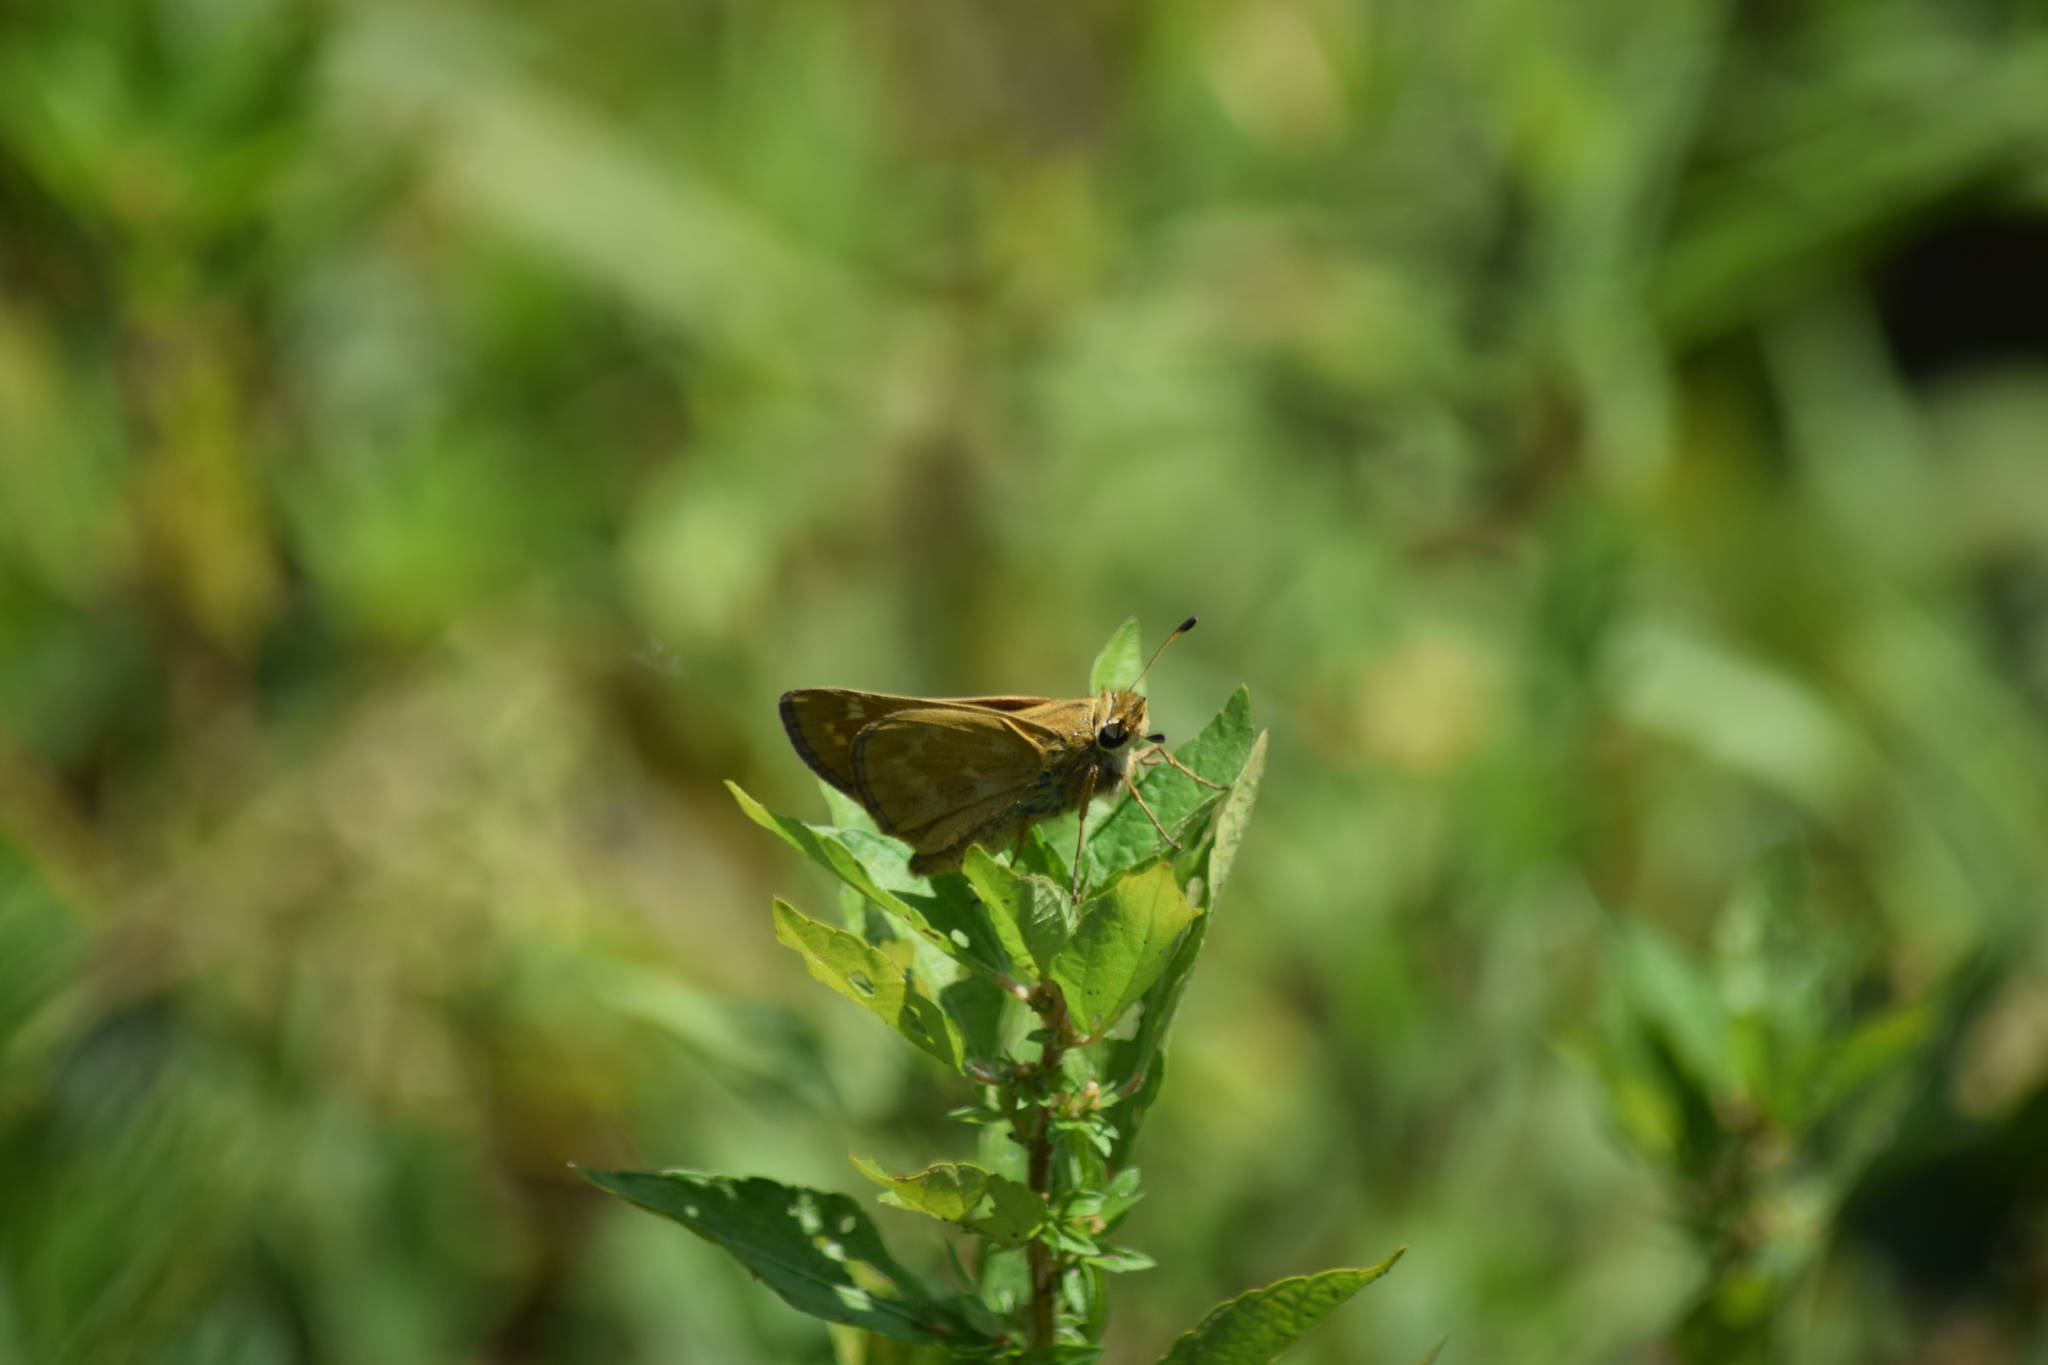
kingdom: Animalia
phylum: Arthropoda
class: Insecta
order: Lepidoptera
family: Hesperiidae
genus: Atalopedes
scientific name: Atalopedes
